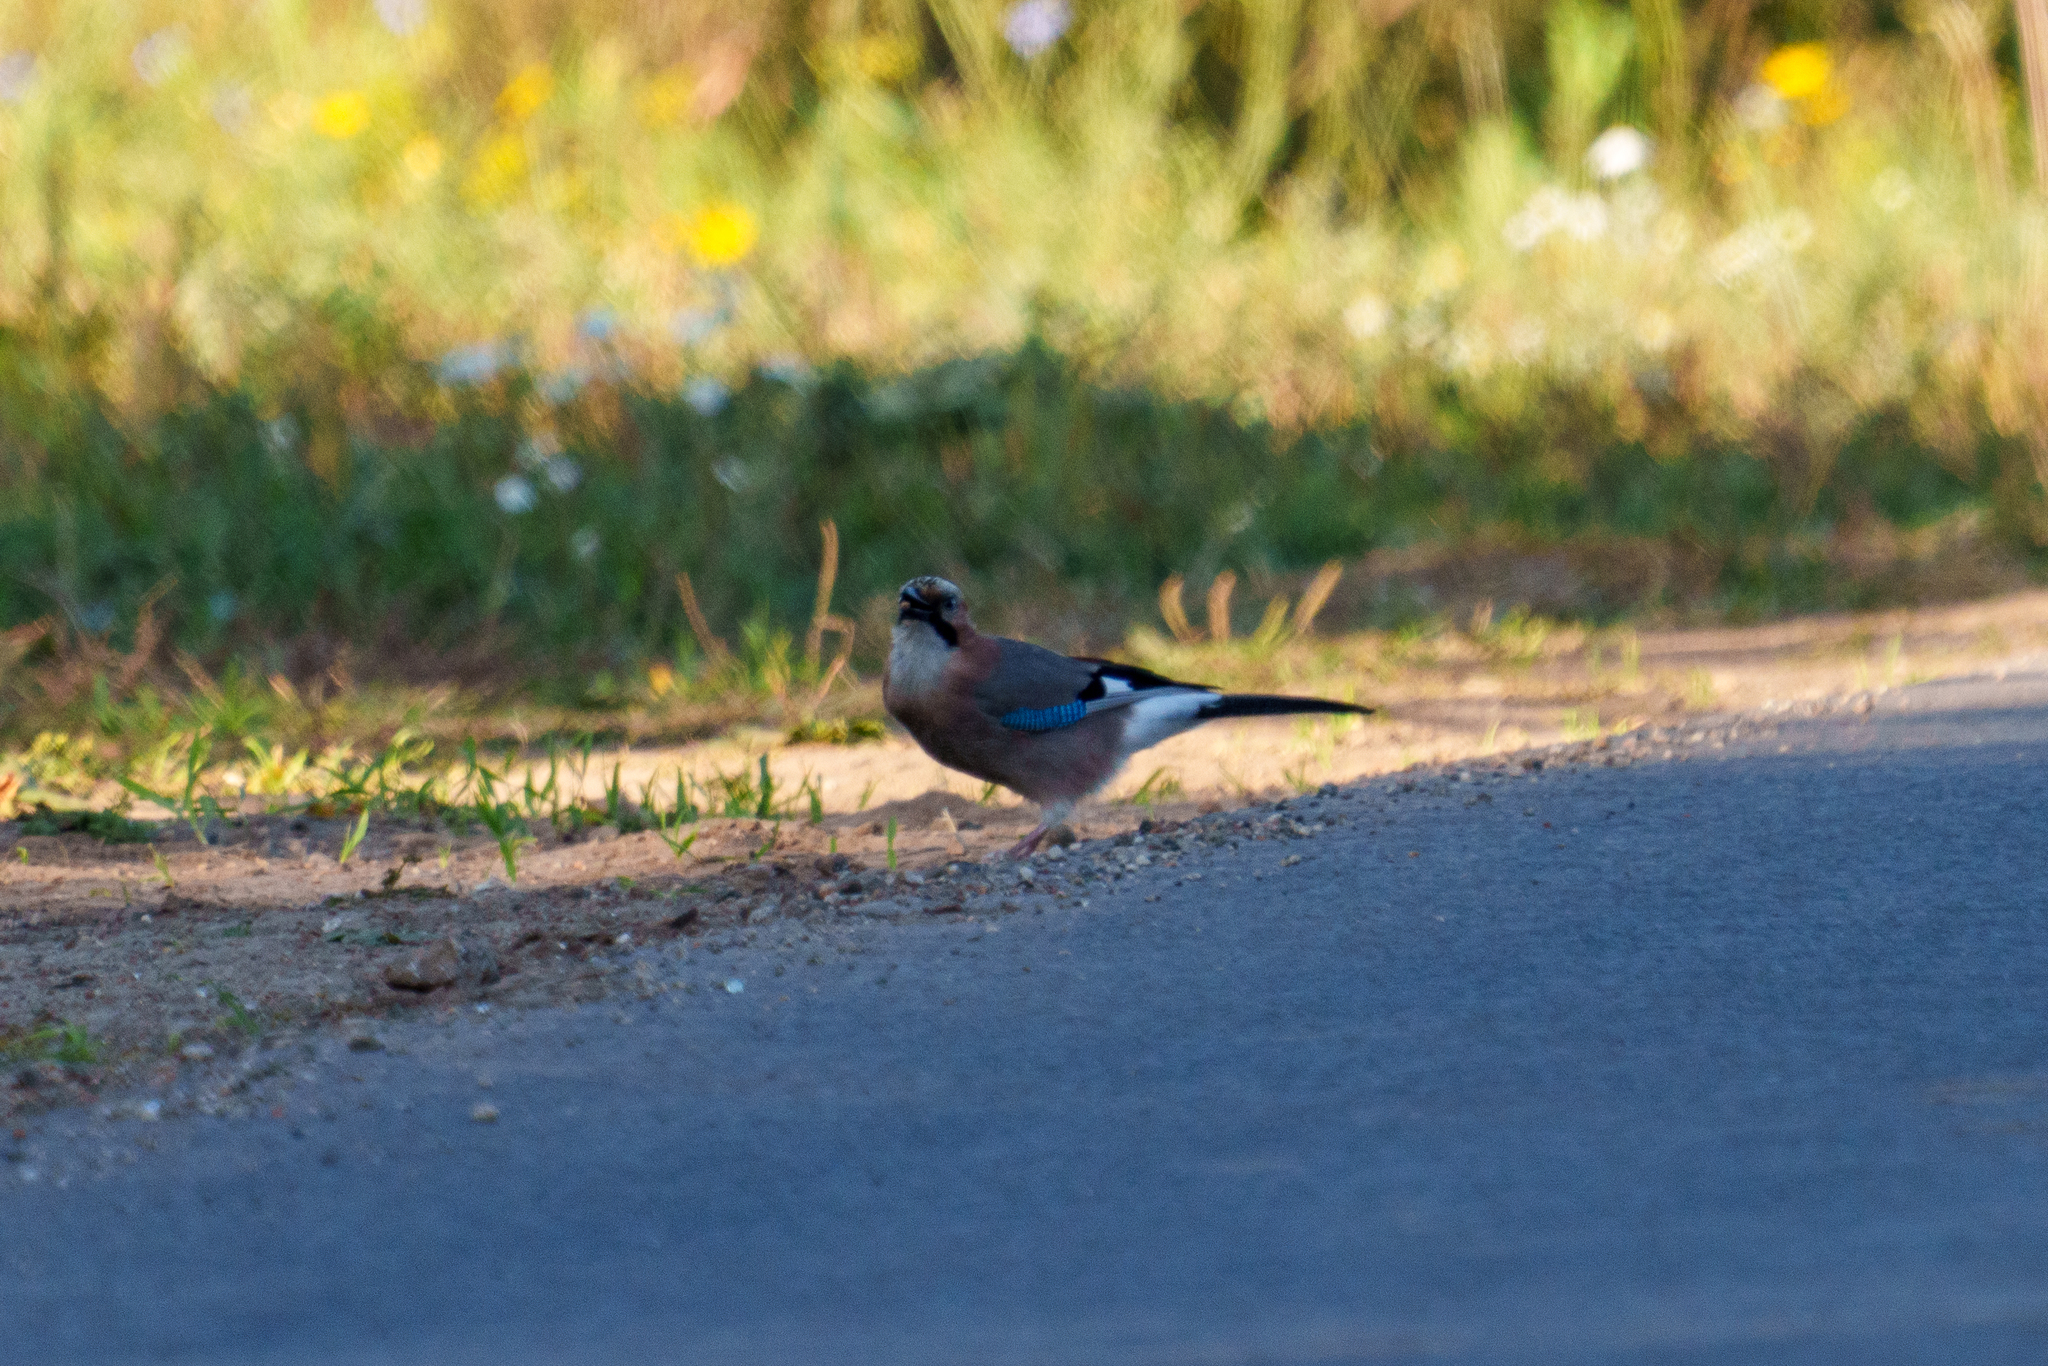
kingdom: Animalia
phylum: Chordata
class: Aves
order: Passeriformes
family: Corvidae
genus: Garrulus
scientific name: Garrulus glandarius
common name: Eurasian jay
